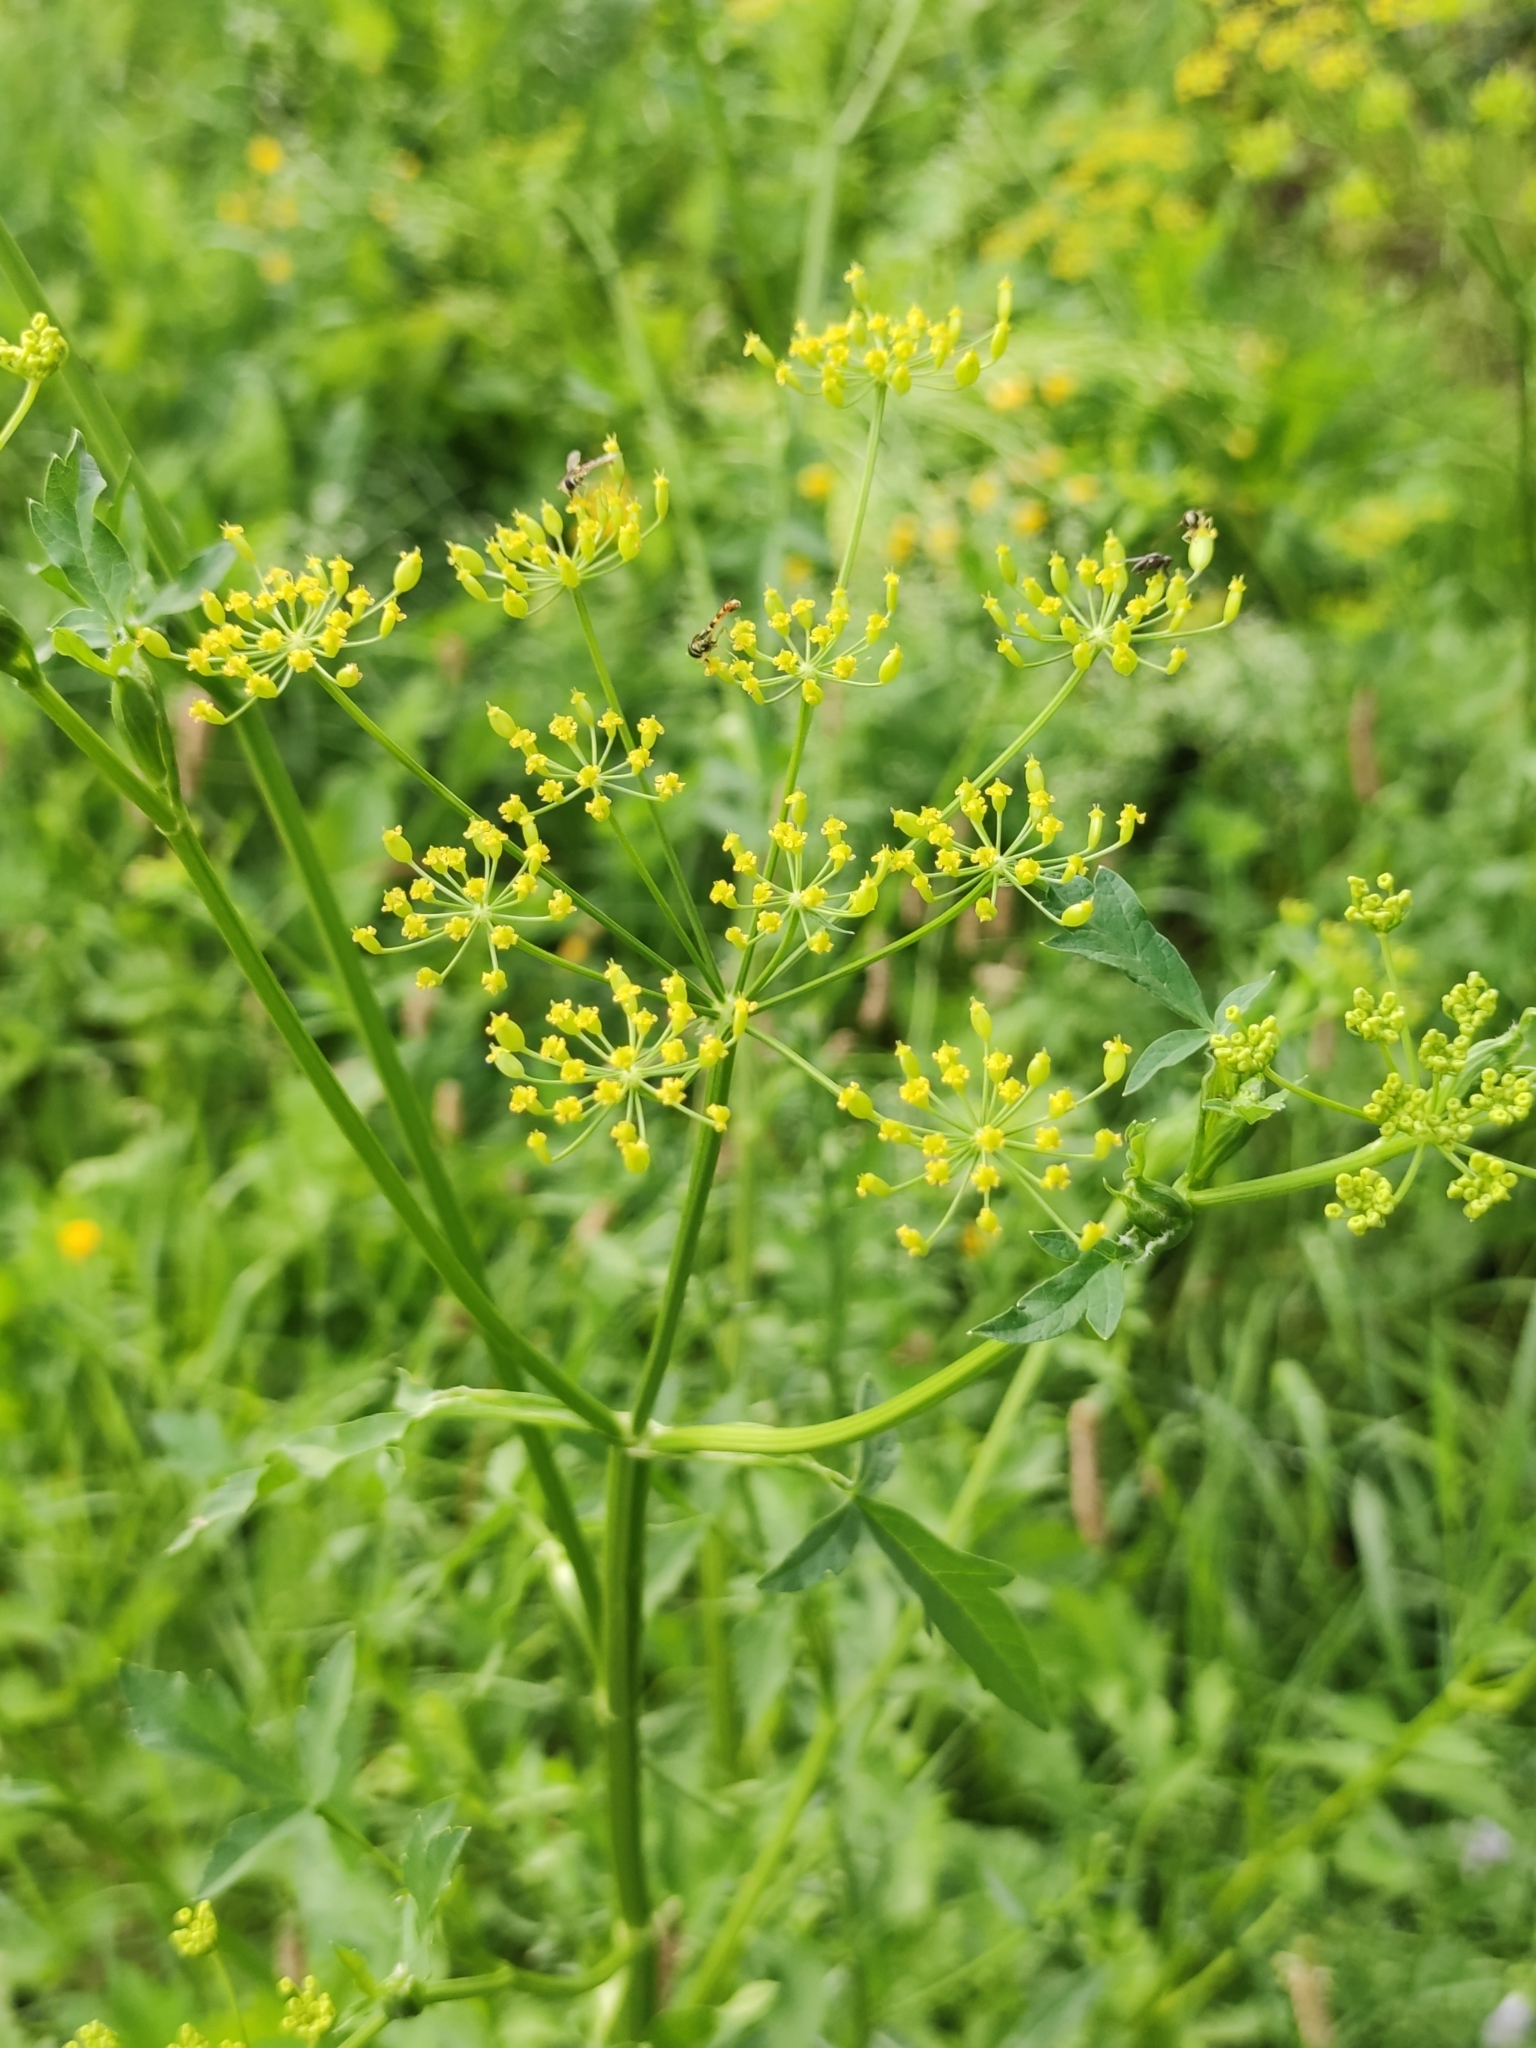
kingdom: Plantae
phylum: Tracheophyta
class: Magnoliopsida
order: Apiales
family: Apiaceae
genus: Pastinaca
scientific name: Pastinaca sativa
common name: Wild parsnip
